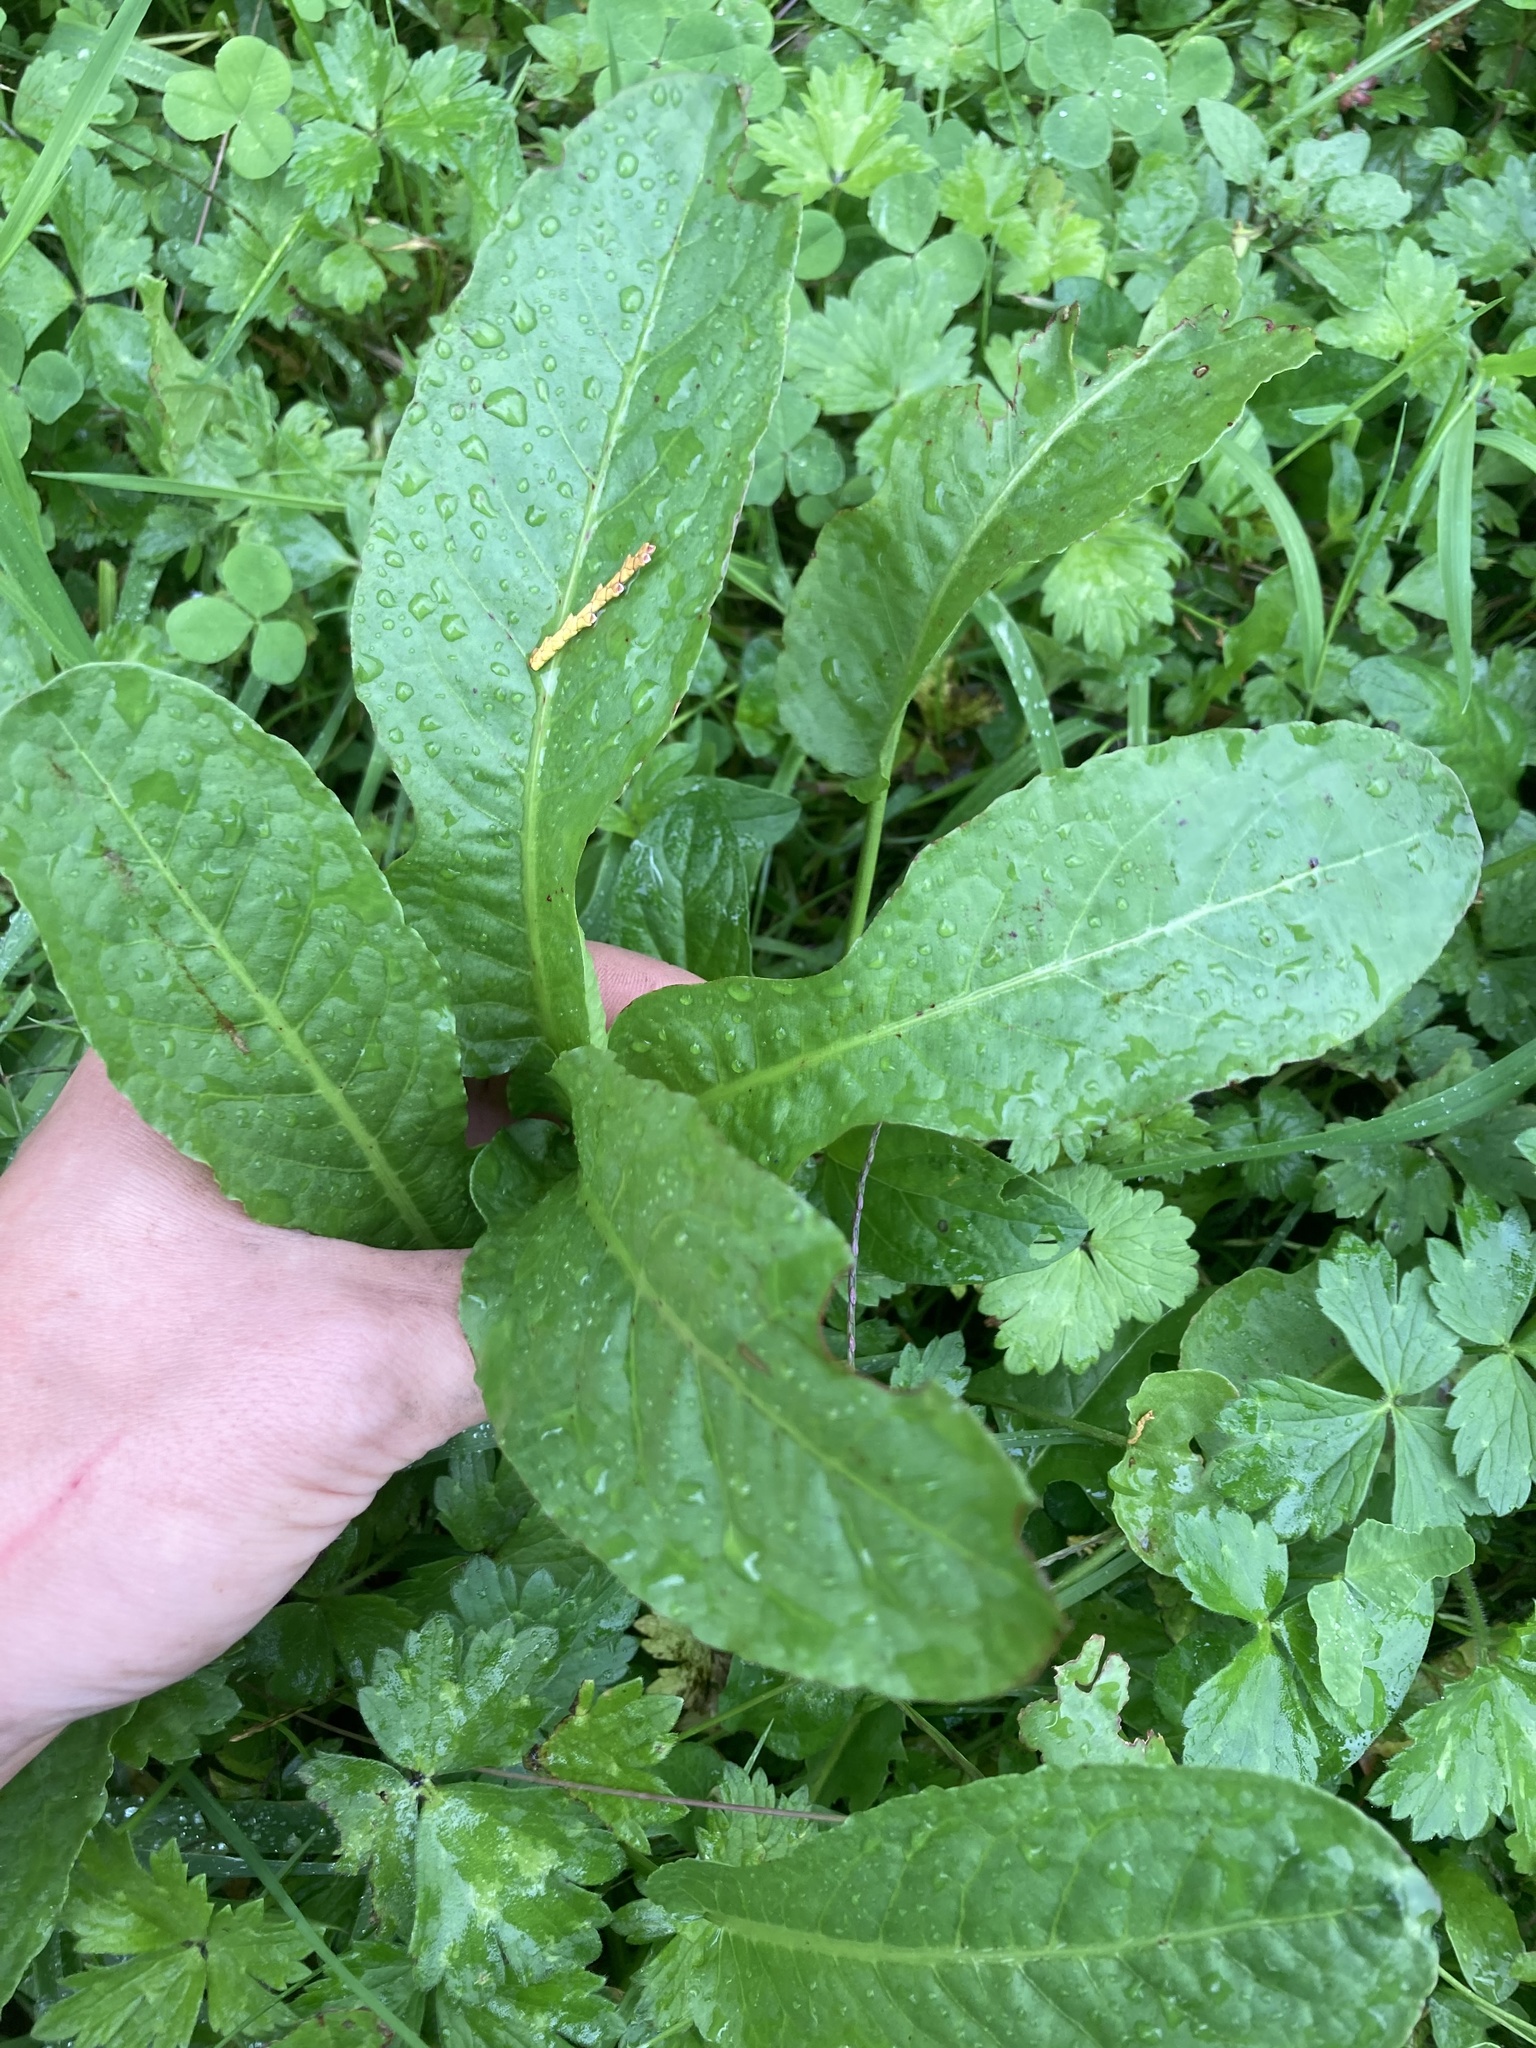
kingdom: Plantae
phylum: Tracheophyta
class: Magnoliopsida
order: Caryophyllales
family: Polygonaceae
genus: Rumex
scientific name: Rumex pulcher
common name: Fiddle dock
